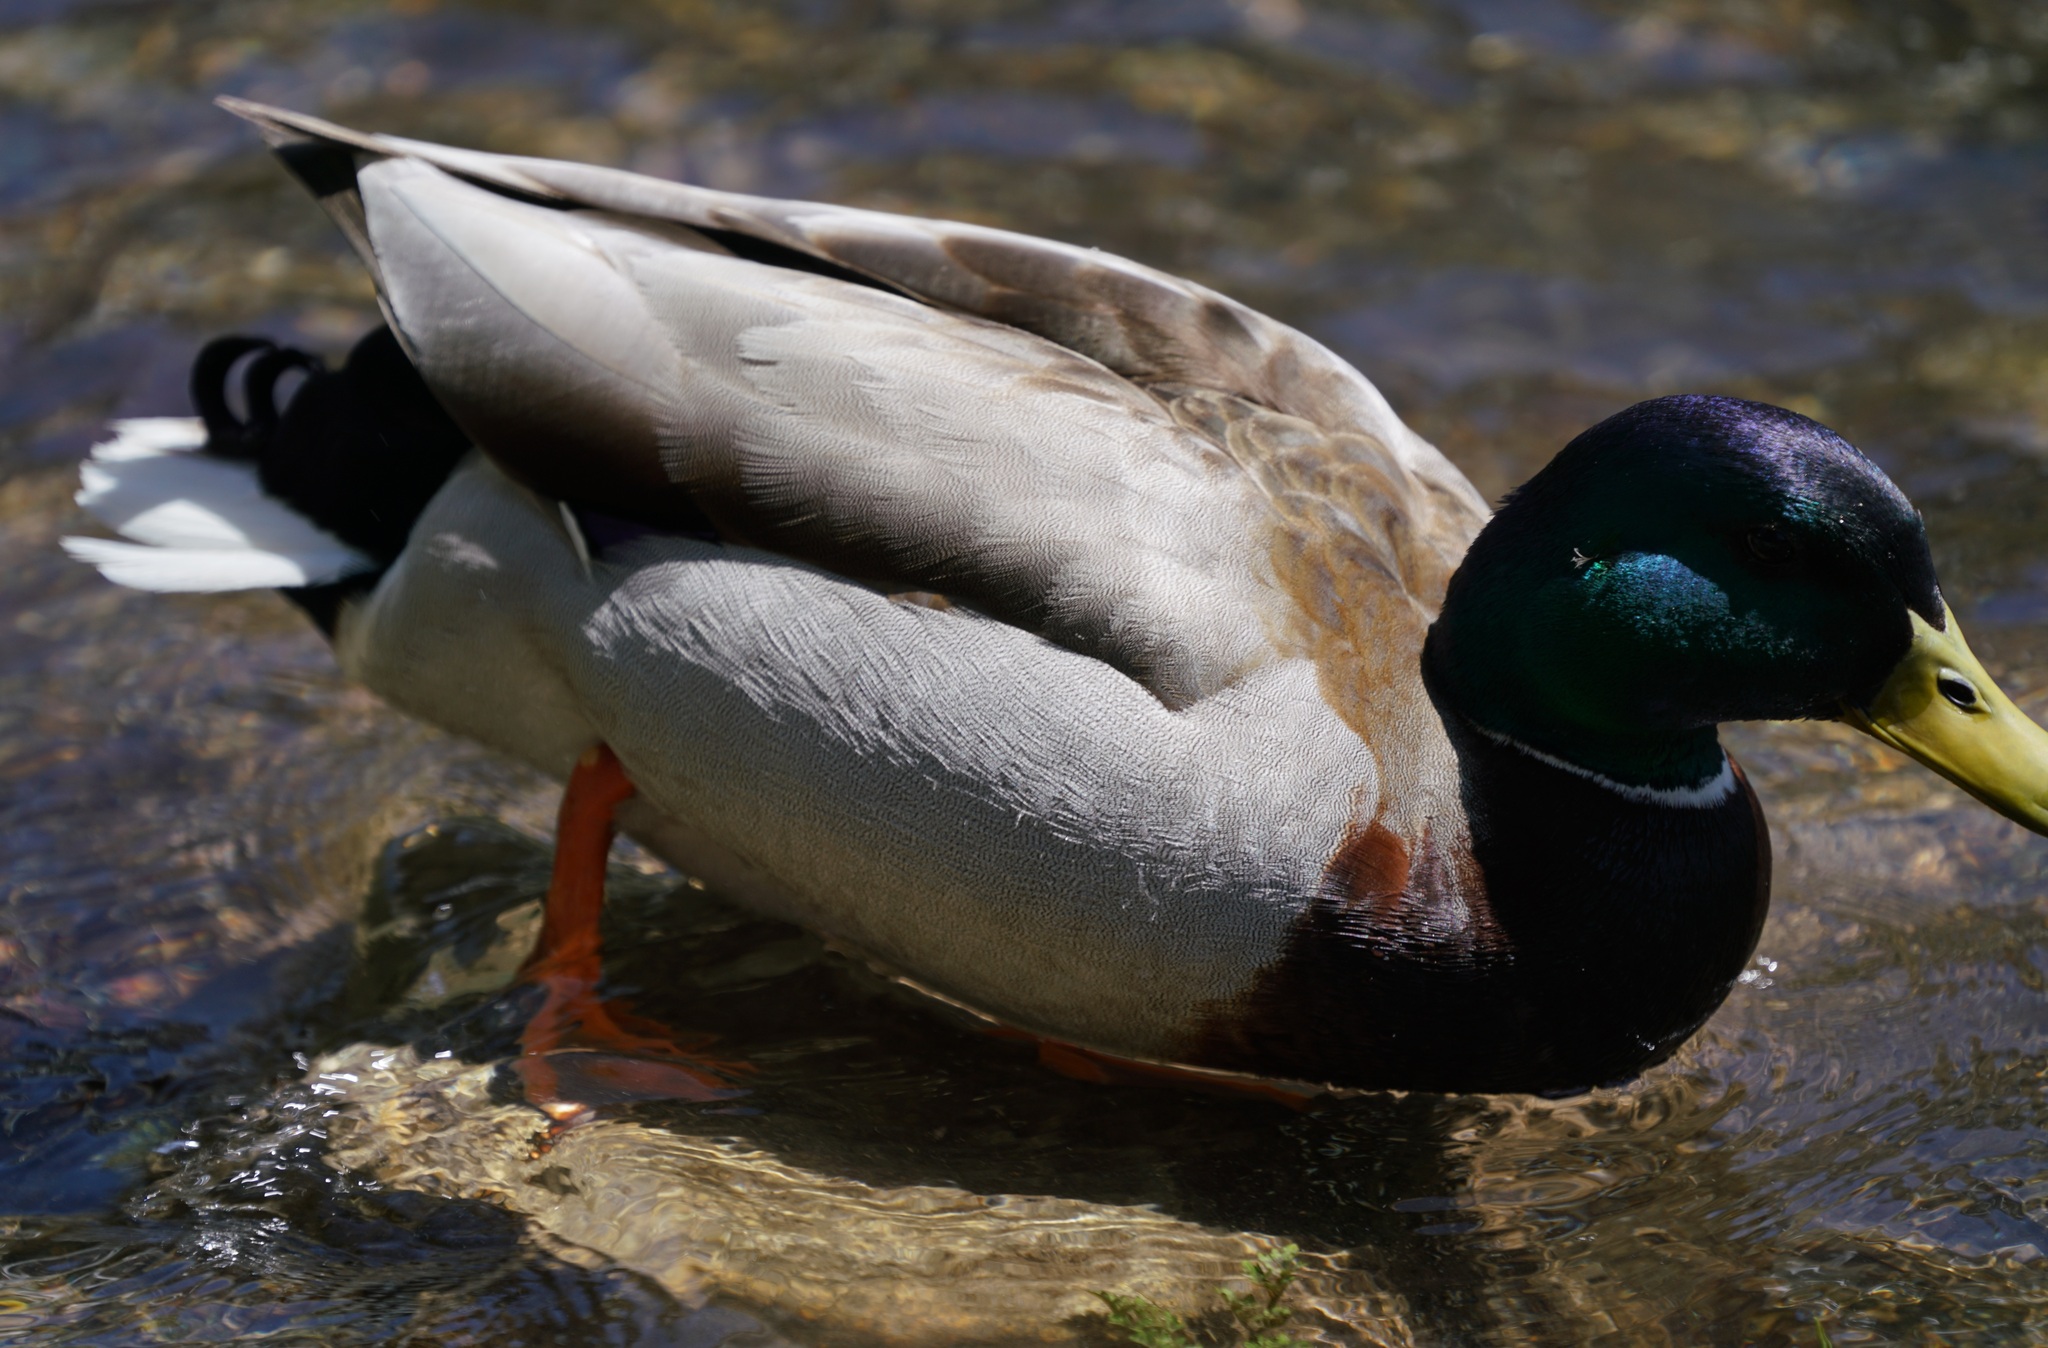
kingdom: Animalia
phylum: Chordata
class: Aves
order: Anseriformes
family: Anatidae
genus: Anas
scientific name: Anas platyrhynchos
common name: Mallard
